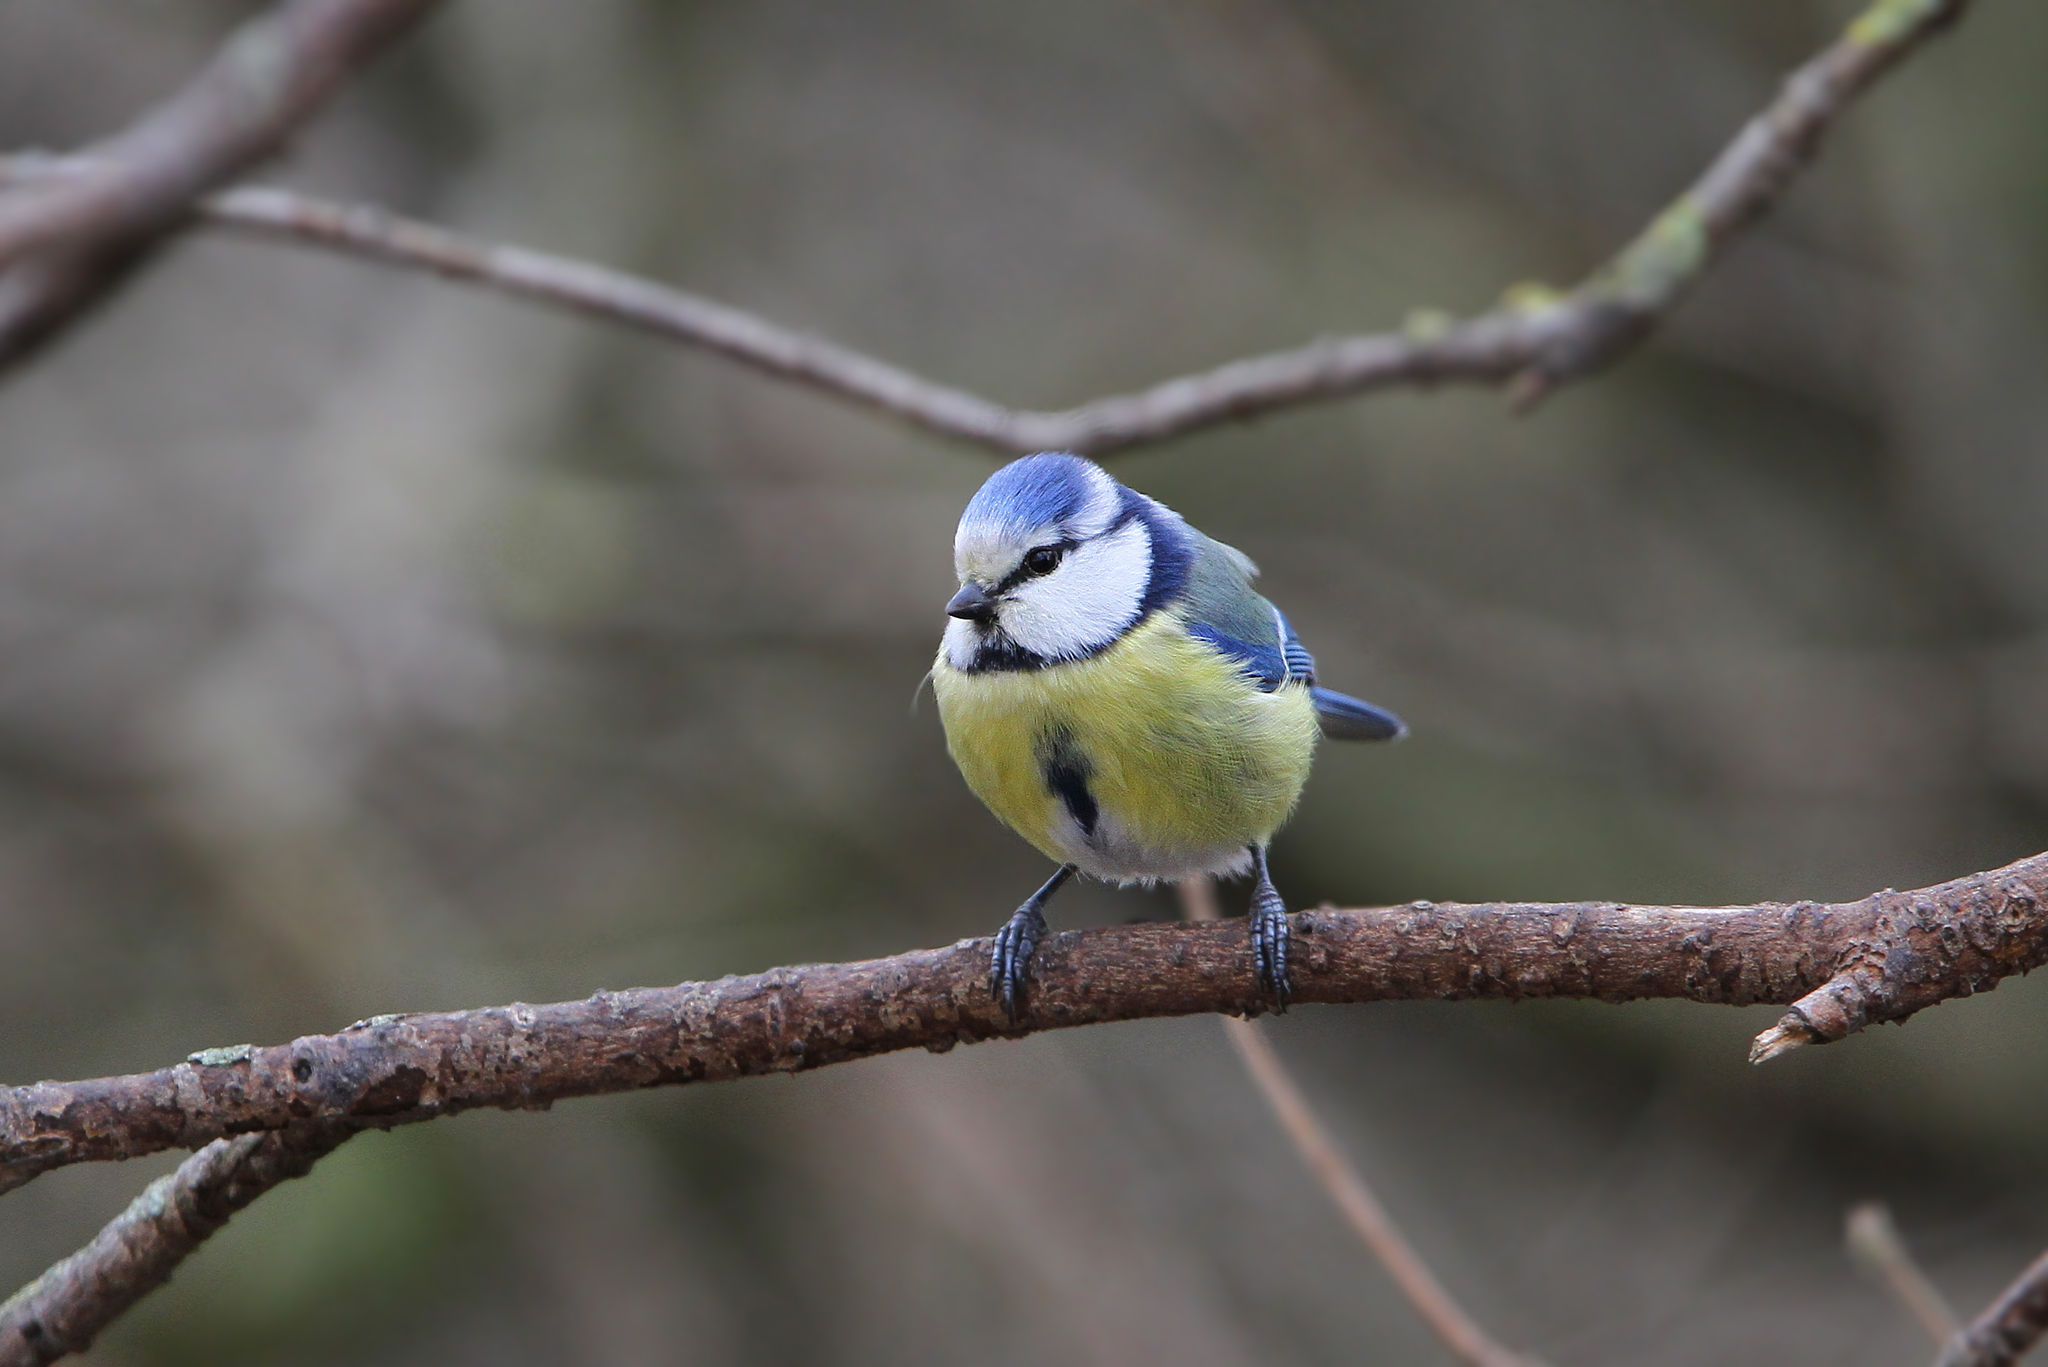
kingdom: Animalia
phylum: Chordata
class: Aves
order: Passeriformes
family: Paridae
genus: Cyanistes
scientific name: Cyanistes caeruleus
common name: Eurasian blue tit
